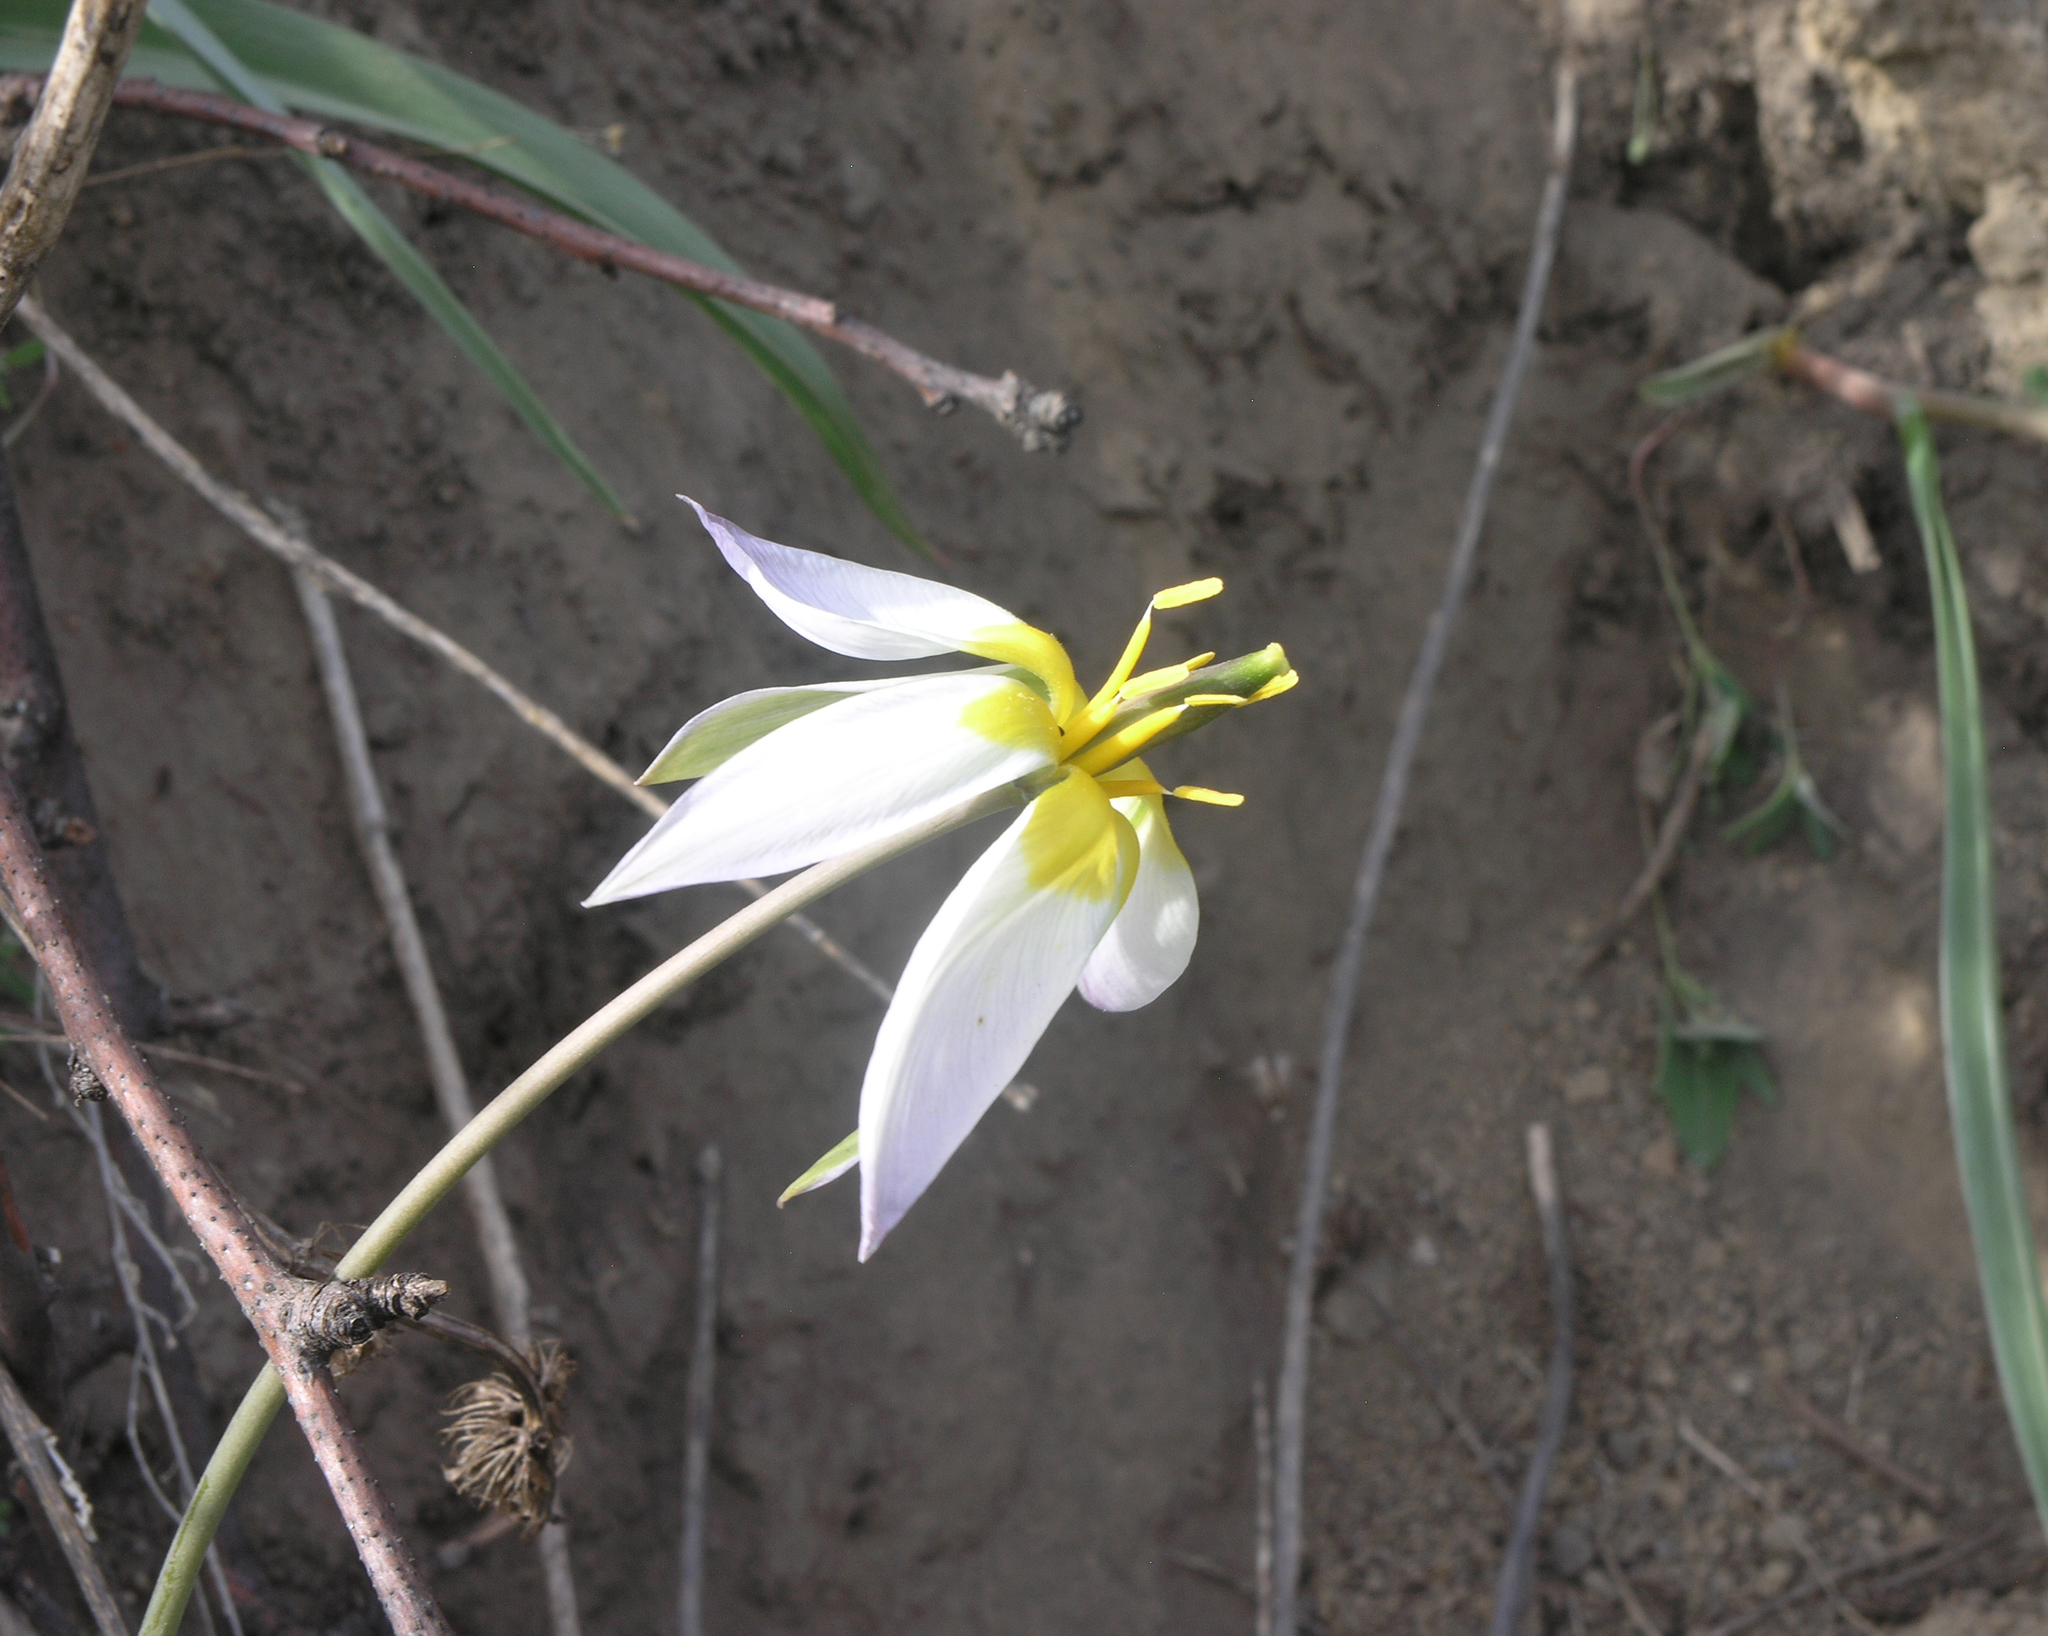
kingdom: Plantae
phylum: Tracheophyta
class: Liliopsida
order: Liliales
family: Liliaceae
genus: Tulipa
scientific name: Tulipa patens
